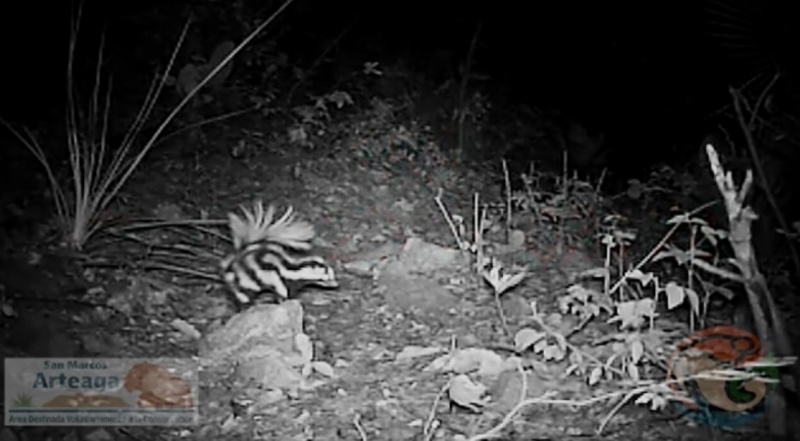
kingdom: Animalia
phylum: Chordata
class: Mammalia
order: Carnivora
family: Mephitidae
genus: Spilogale
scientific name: Spilogale angustifrons
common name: Southern spotted skunk
